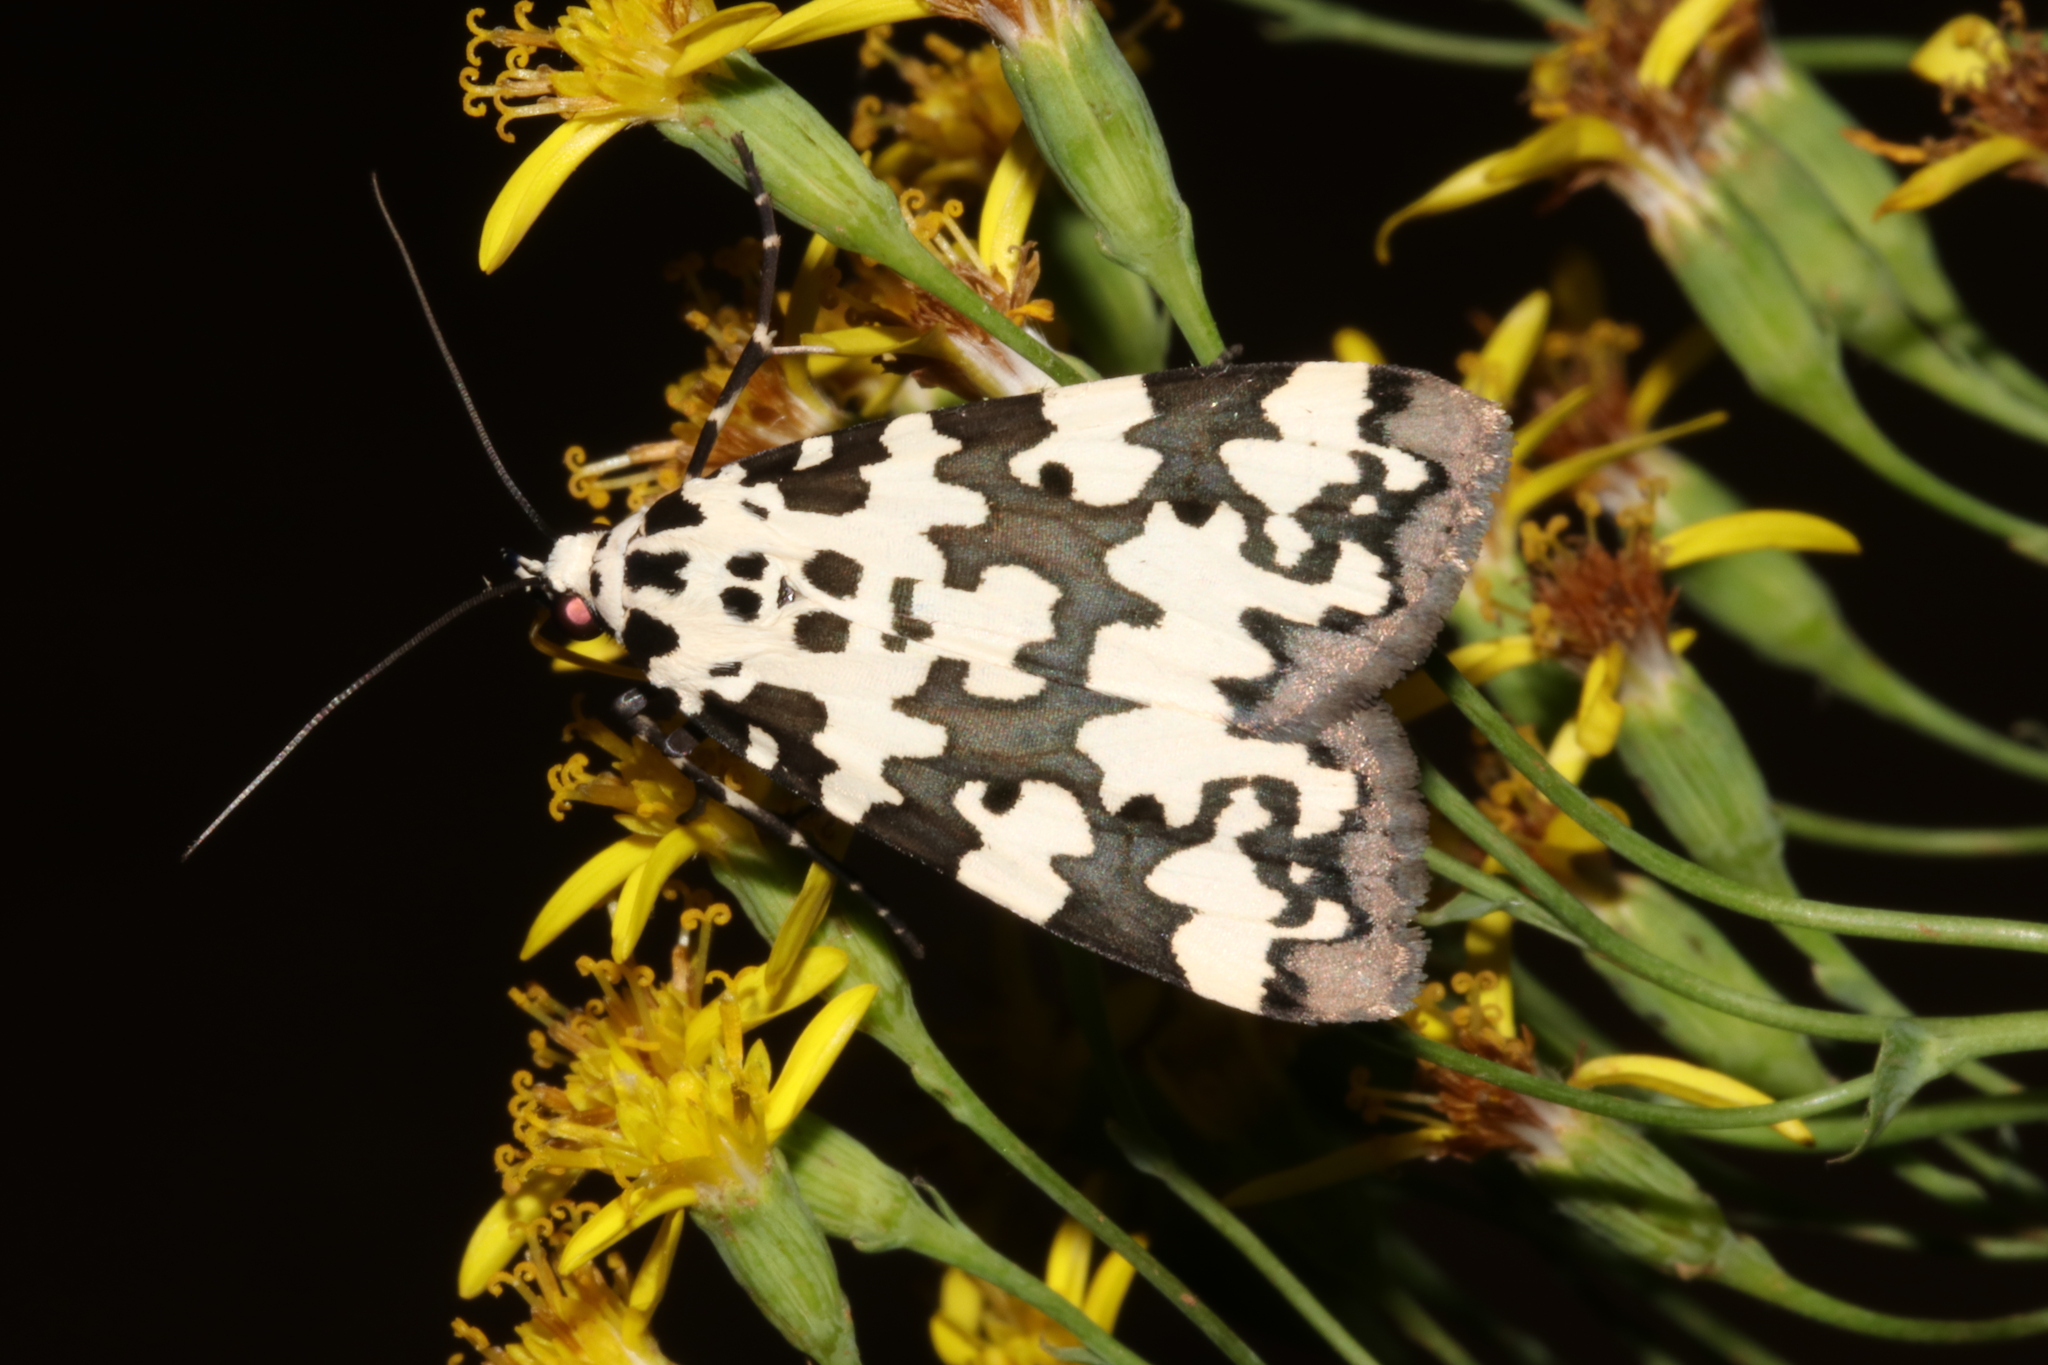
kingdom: Animalia
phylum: Arthropoda
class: Insecta
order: Lepidoptera
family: Erebidae
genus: Digama
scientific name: Digama spilosoma
